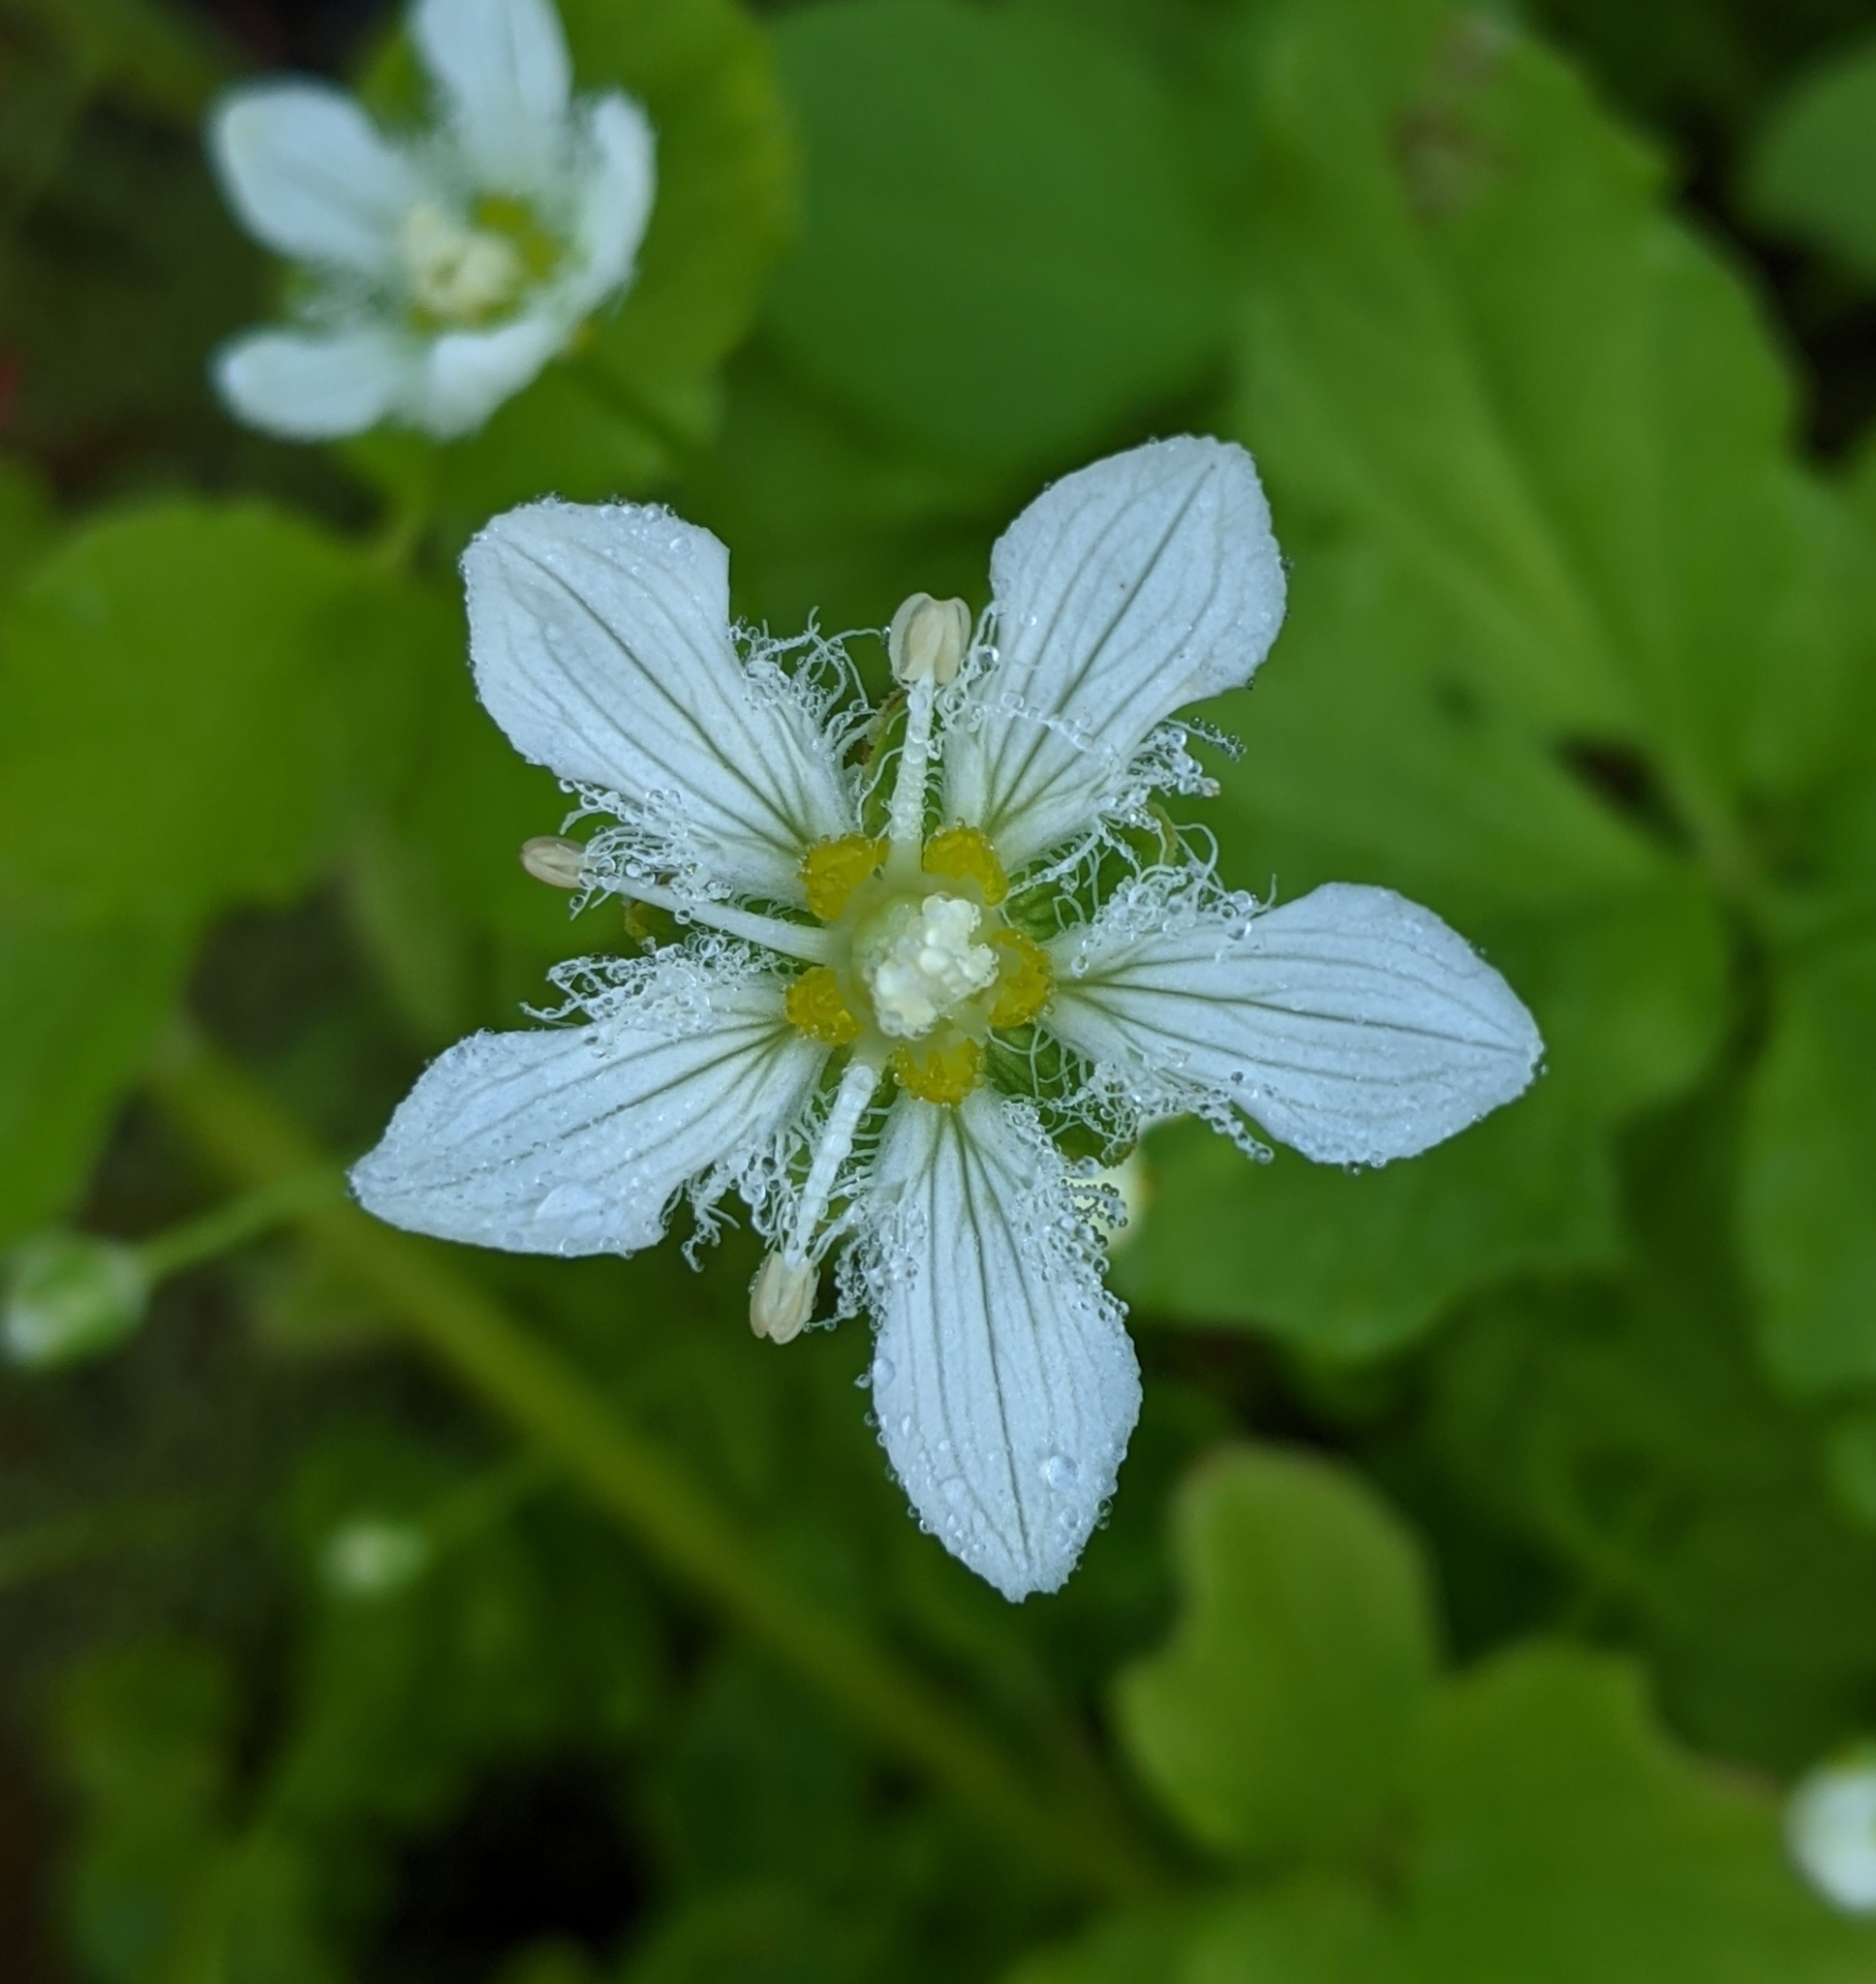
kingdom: Plantae
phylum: Tracheophyta
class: Magnoliopsida
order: Celastrales
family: Parnassiaceae
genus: Parnassia
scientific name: Parnassia fimbriata
